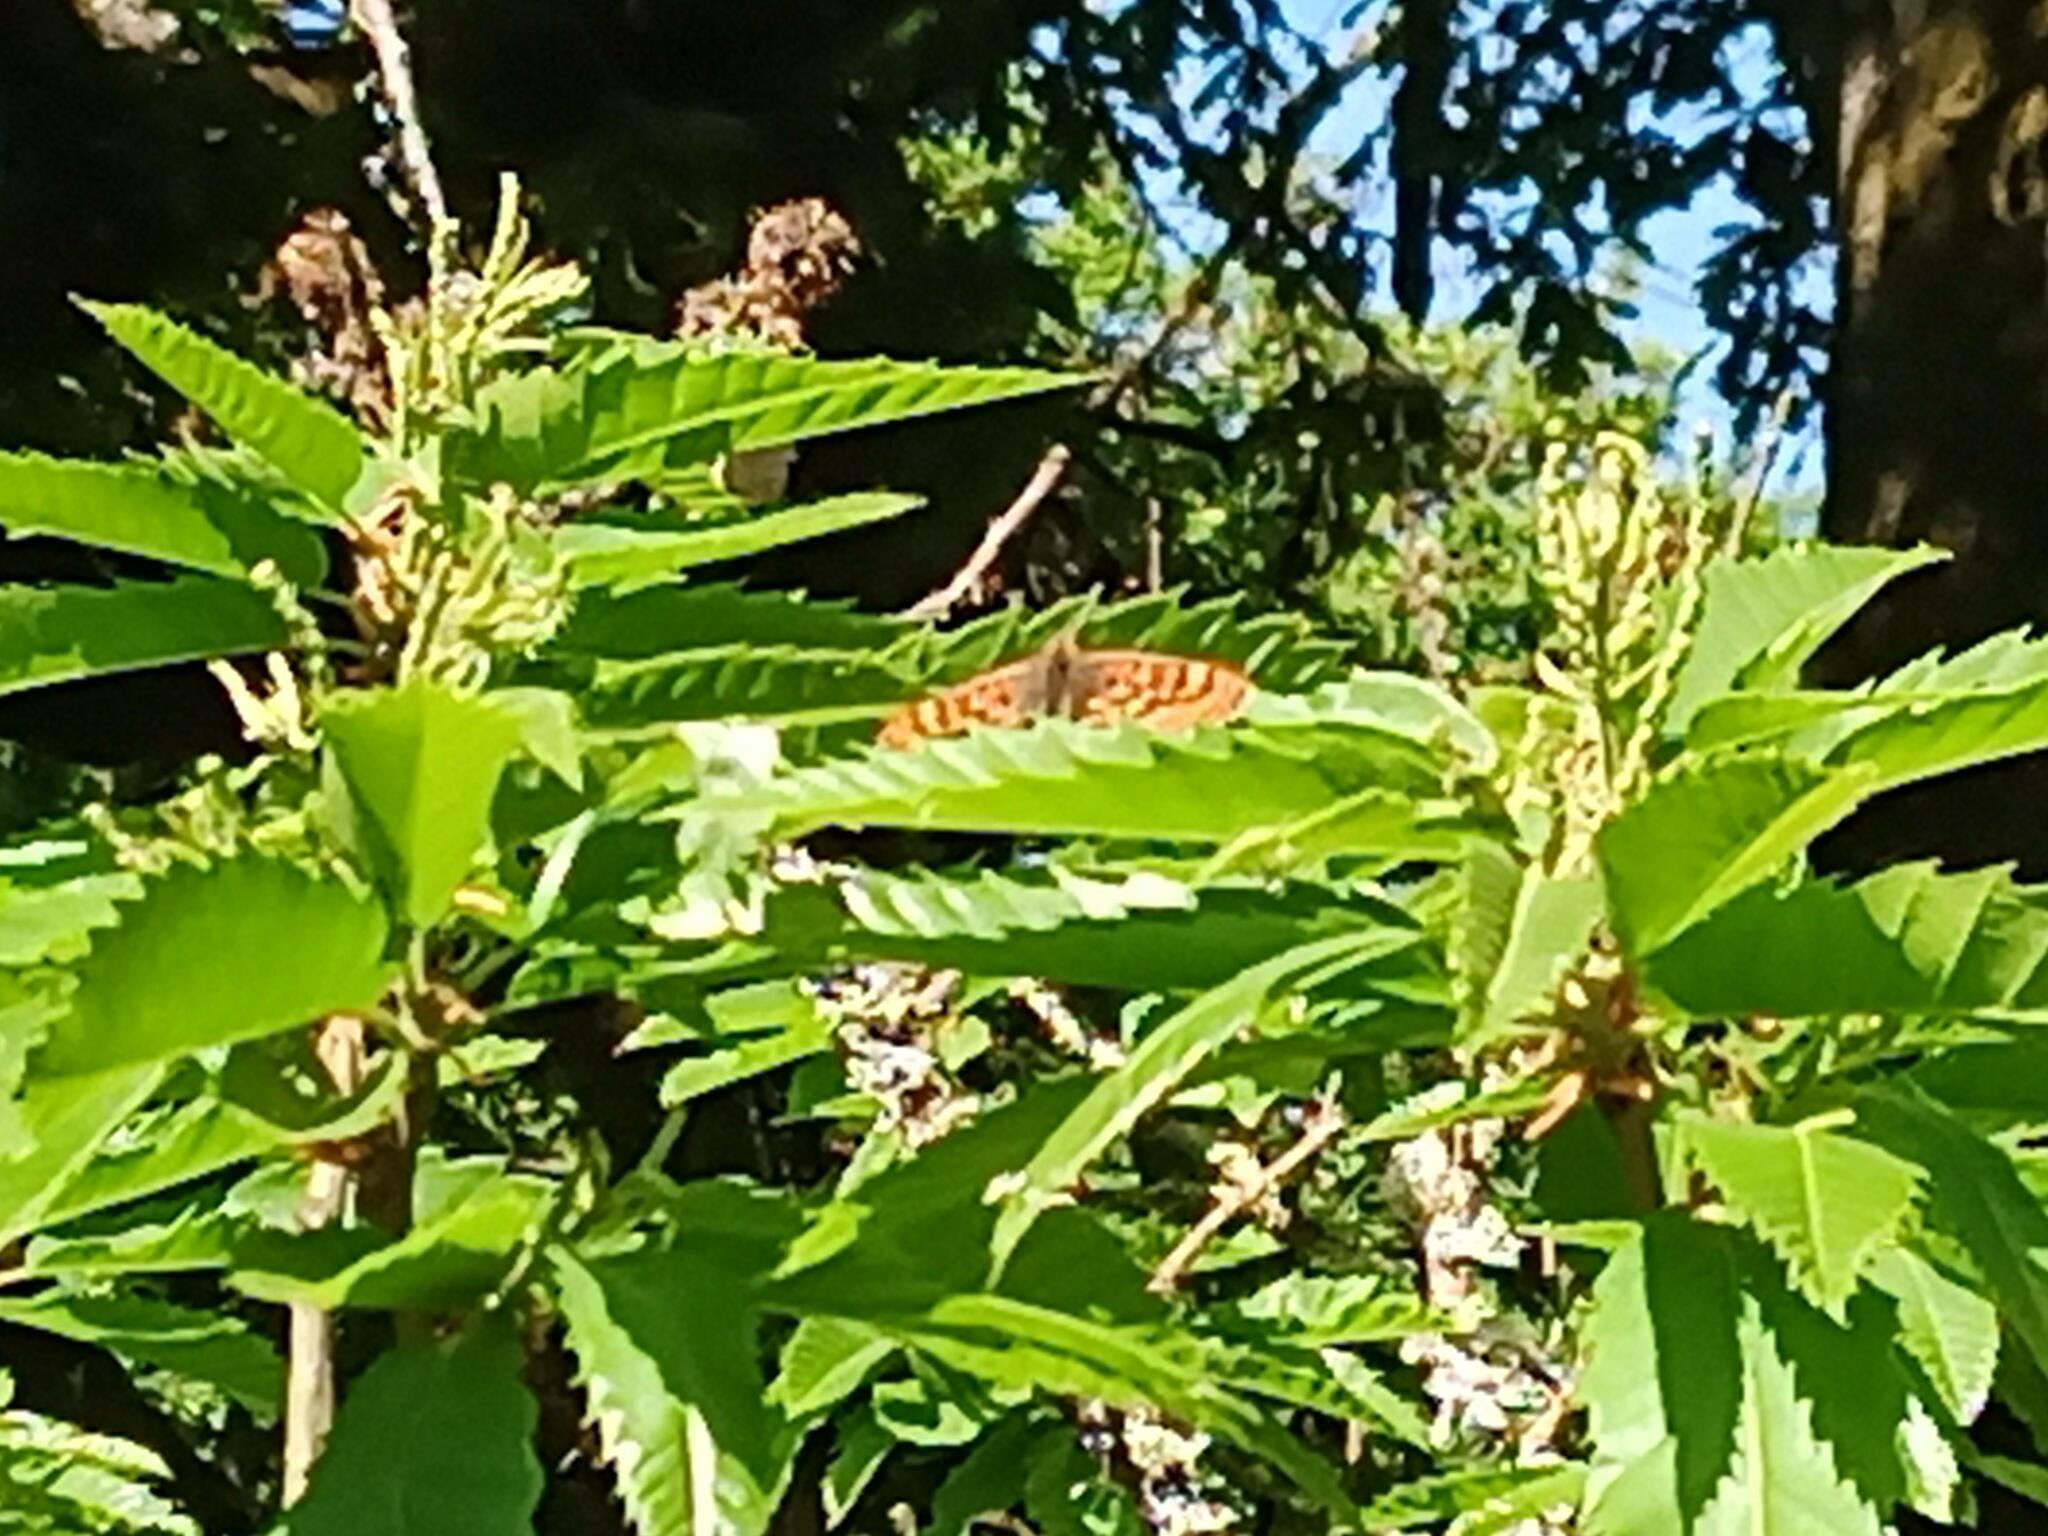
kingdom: Animalia
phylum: Arthropoda
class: Insecta
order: Lepidoptera
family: Nymphalidae
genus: Pararge
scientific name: Pararge aegeria
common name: Speckled wood
